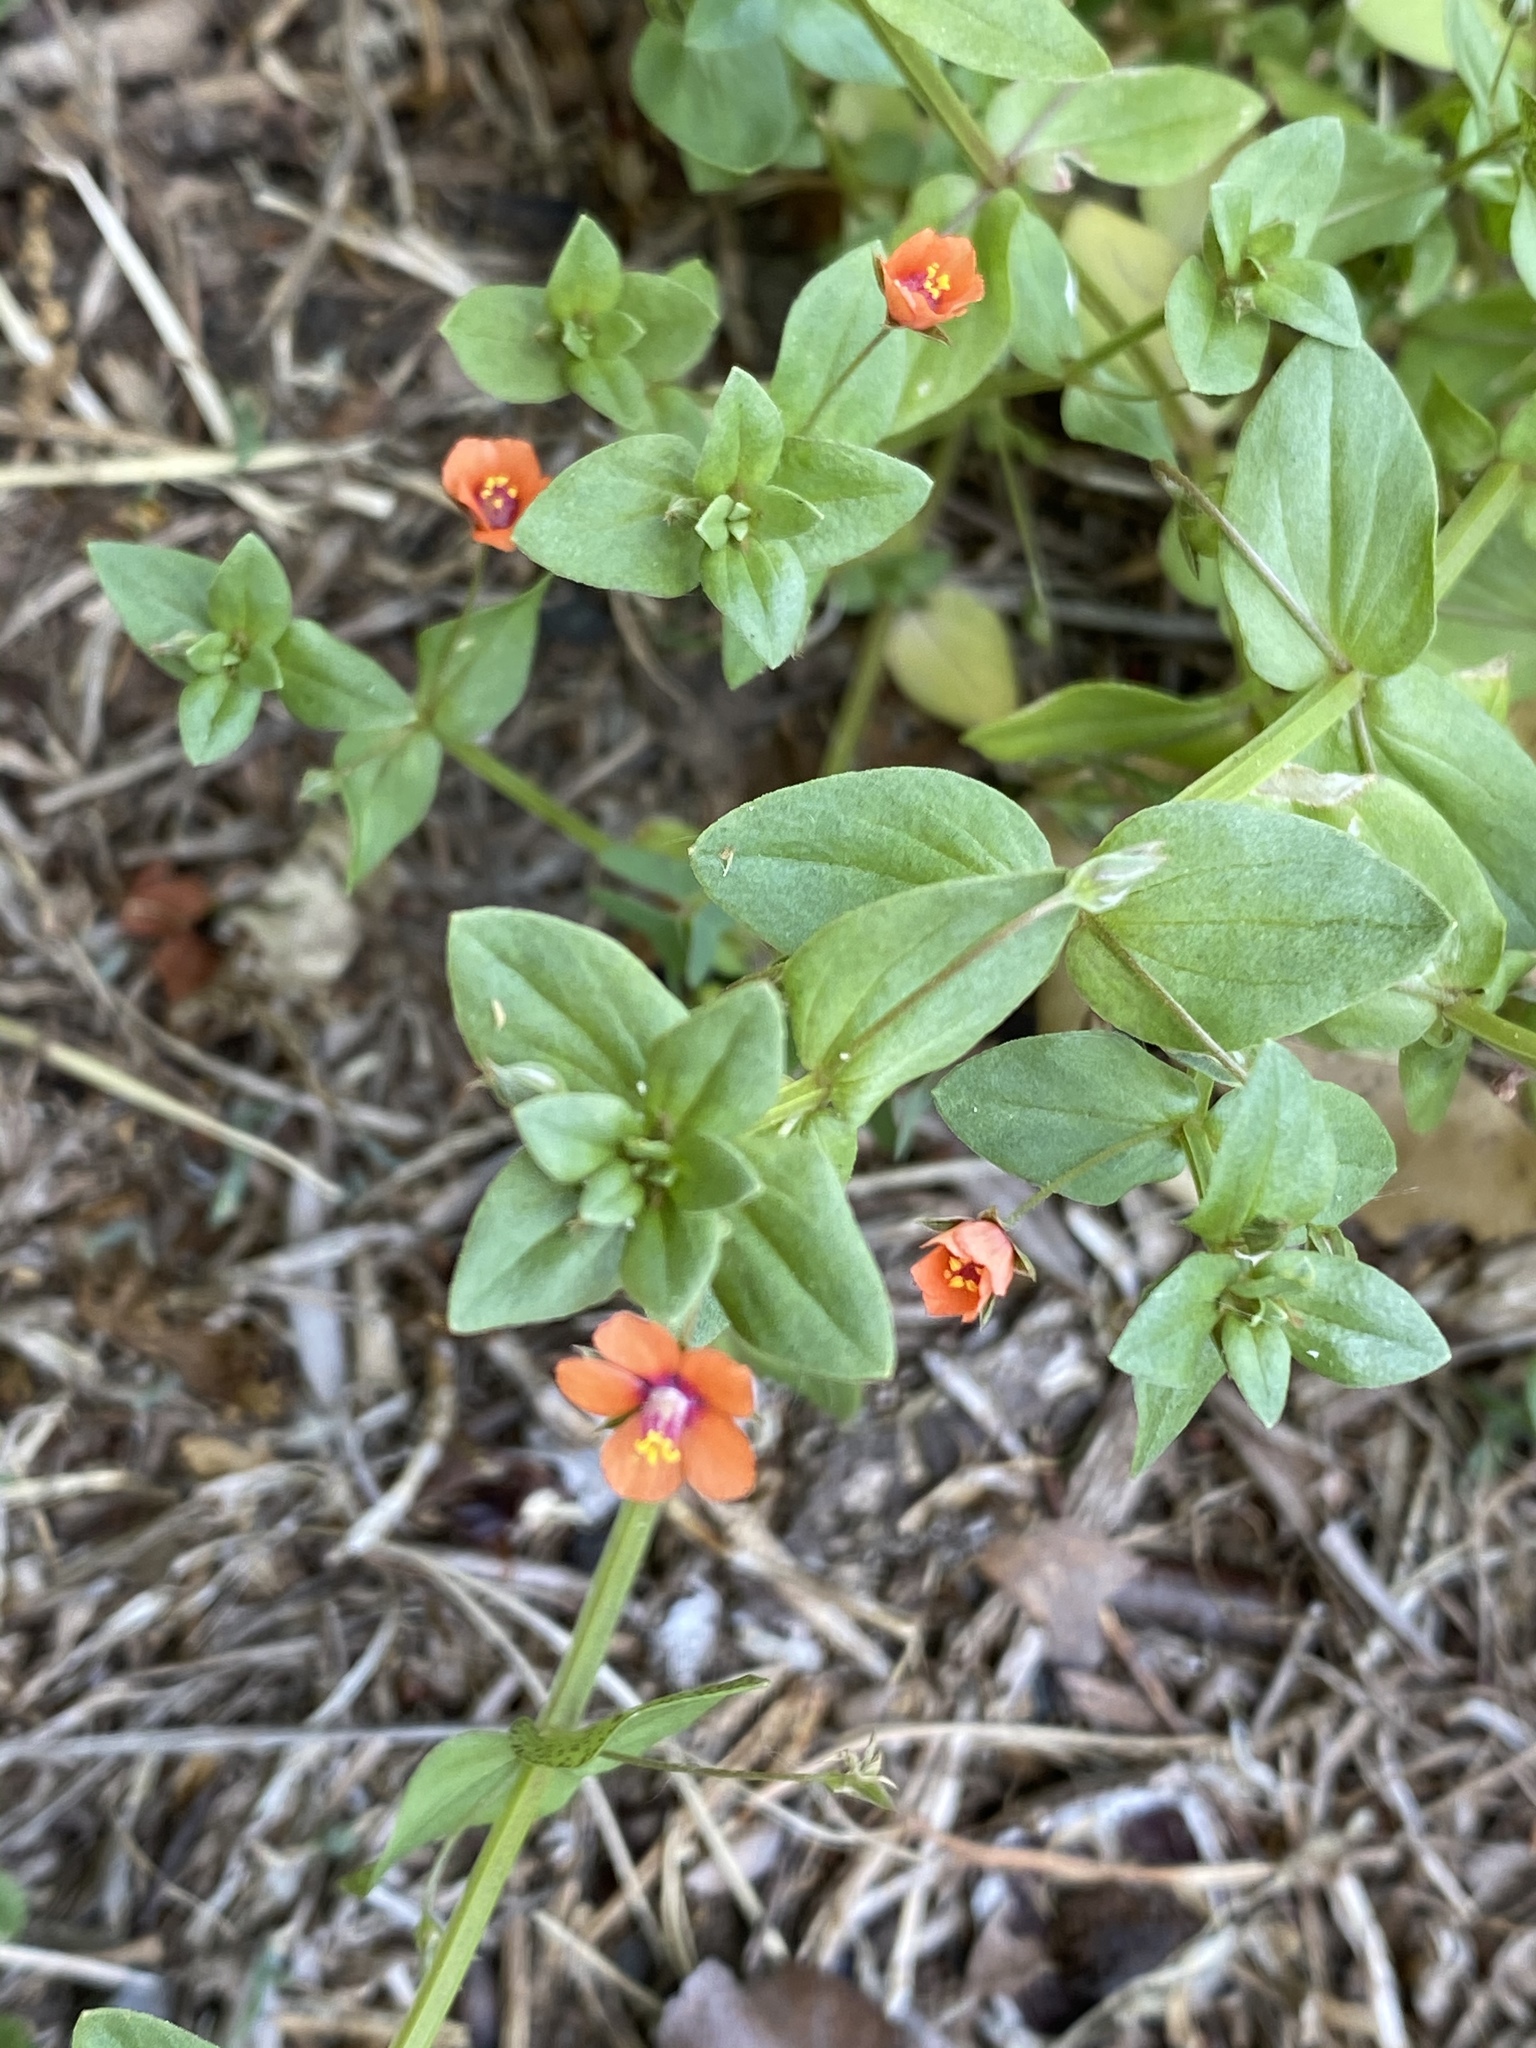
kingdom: Plantae
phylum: Tracheophyta
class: Magnoliopsida
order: Ericales
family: Primulaceae
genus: Lysimachia
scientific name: Lysimachia arvensis
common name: Scarlet pimpernel
